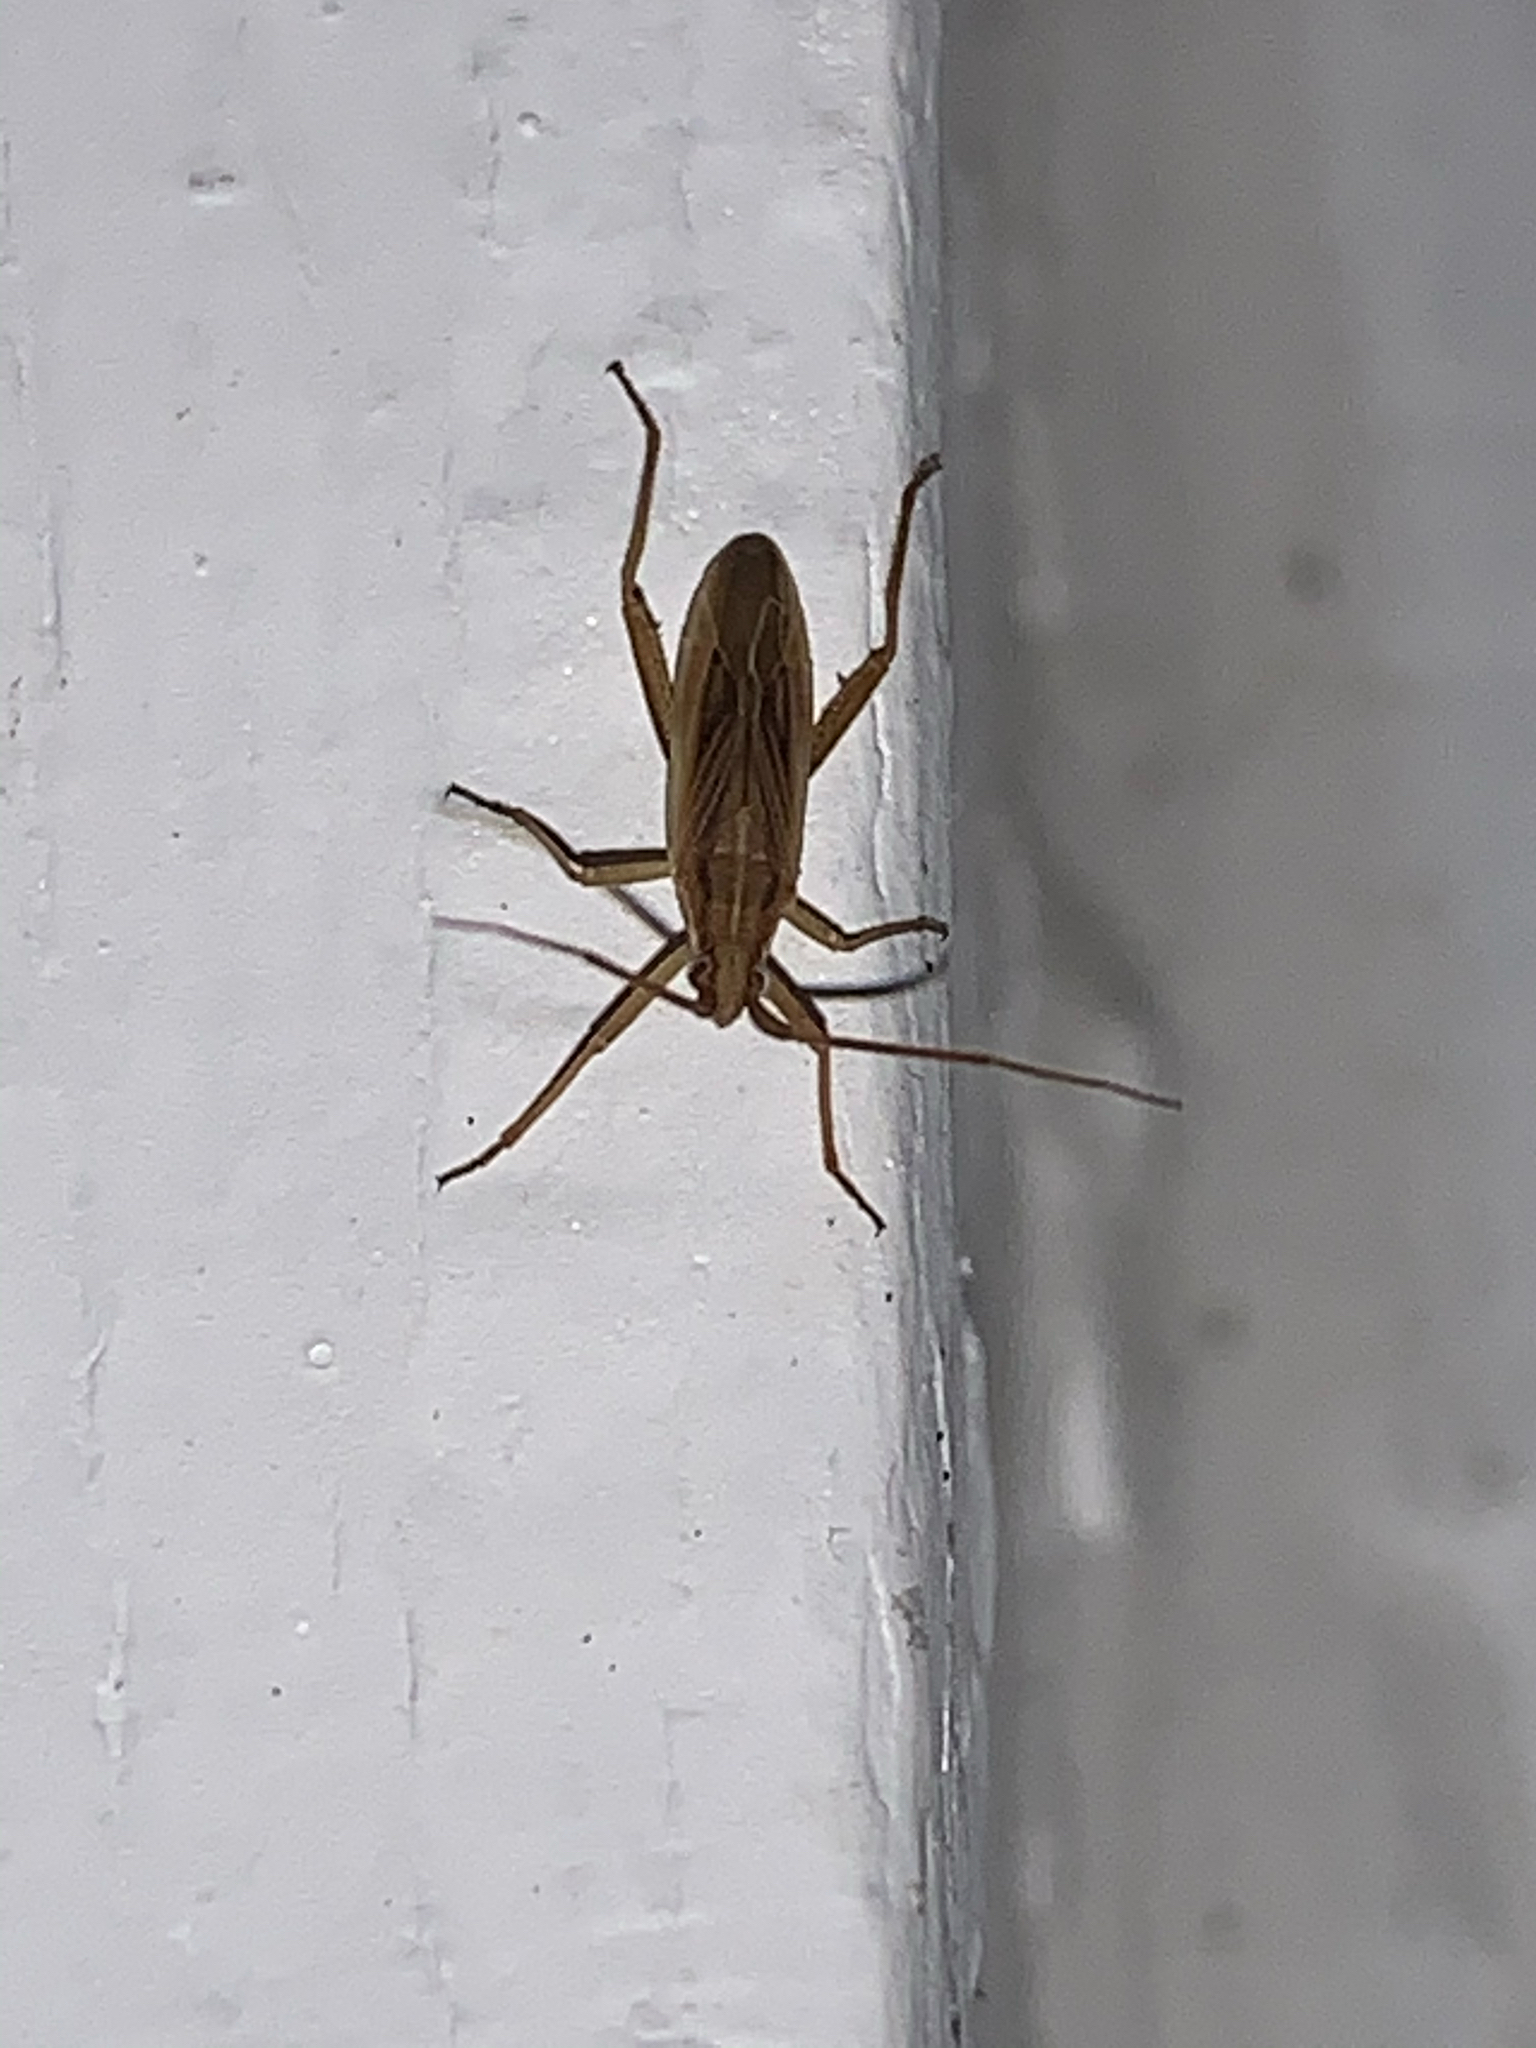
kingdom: Animalia
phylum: Arthropoda
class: Insecta
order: Hemiptera
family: Miridae
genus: Stenodema
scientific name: Stenodema trispinosa
